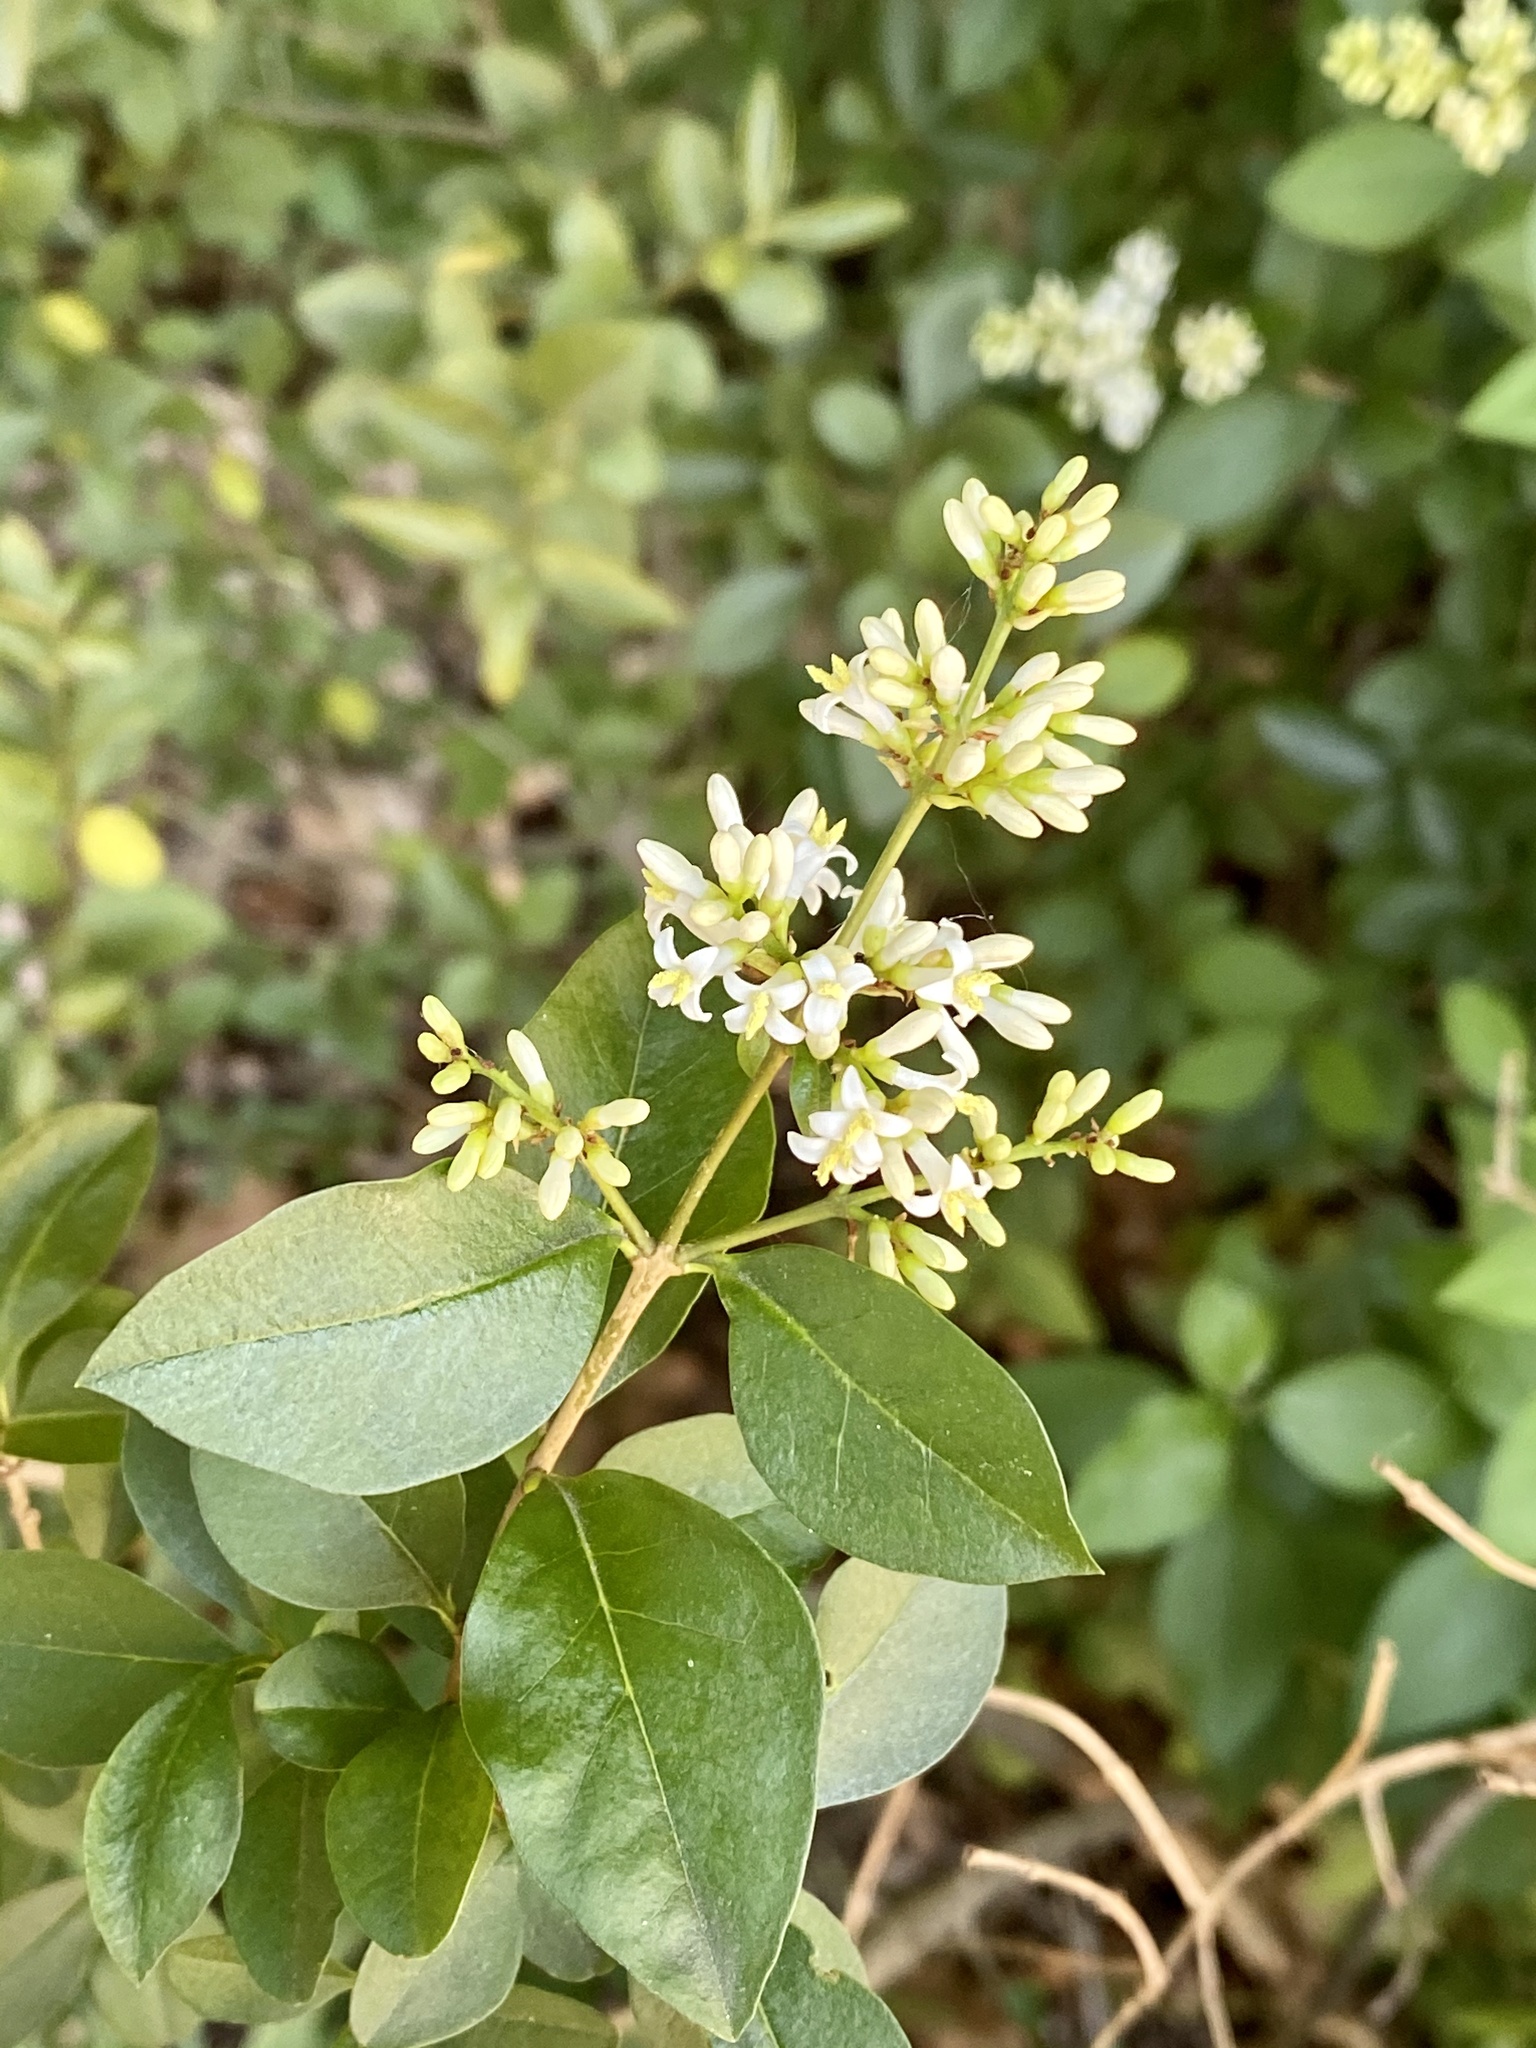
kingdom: Plantae
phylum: Tracheophyta
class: Magnoliopsida
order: Lamiales
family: Oleaceae
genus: Ligustrum
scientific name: Ligustrum ovalifolium
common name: California privet
